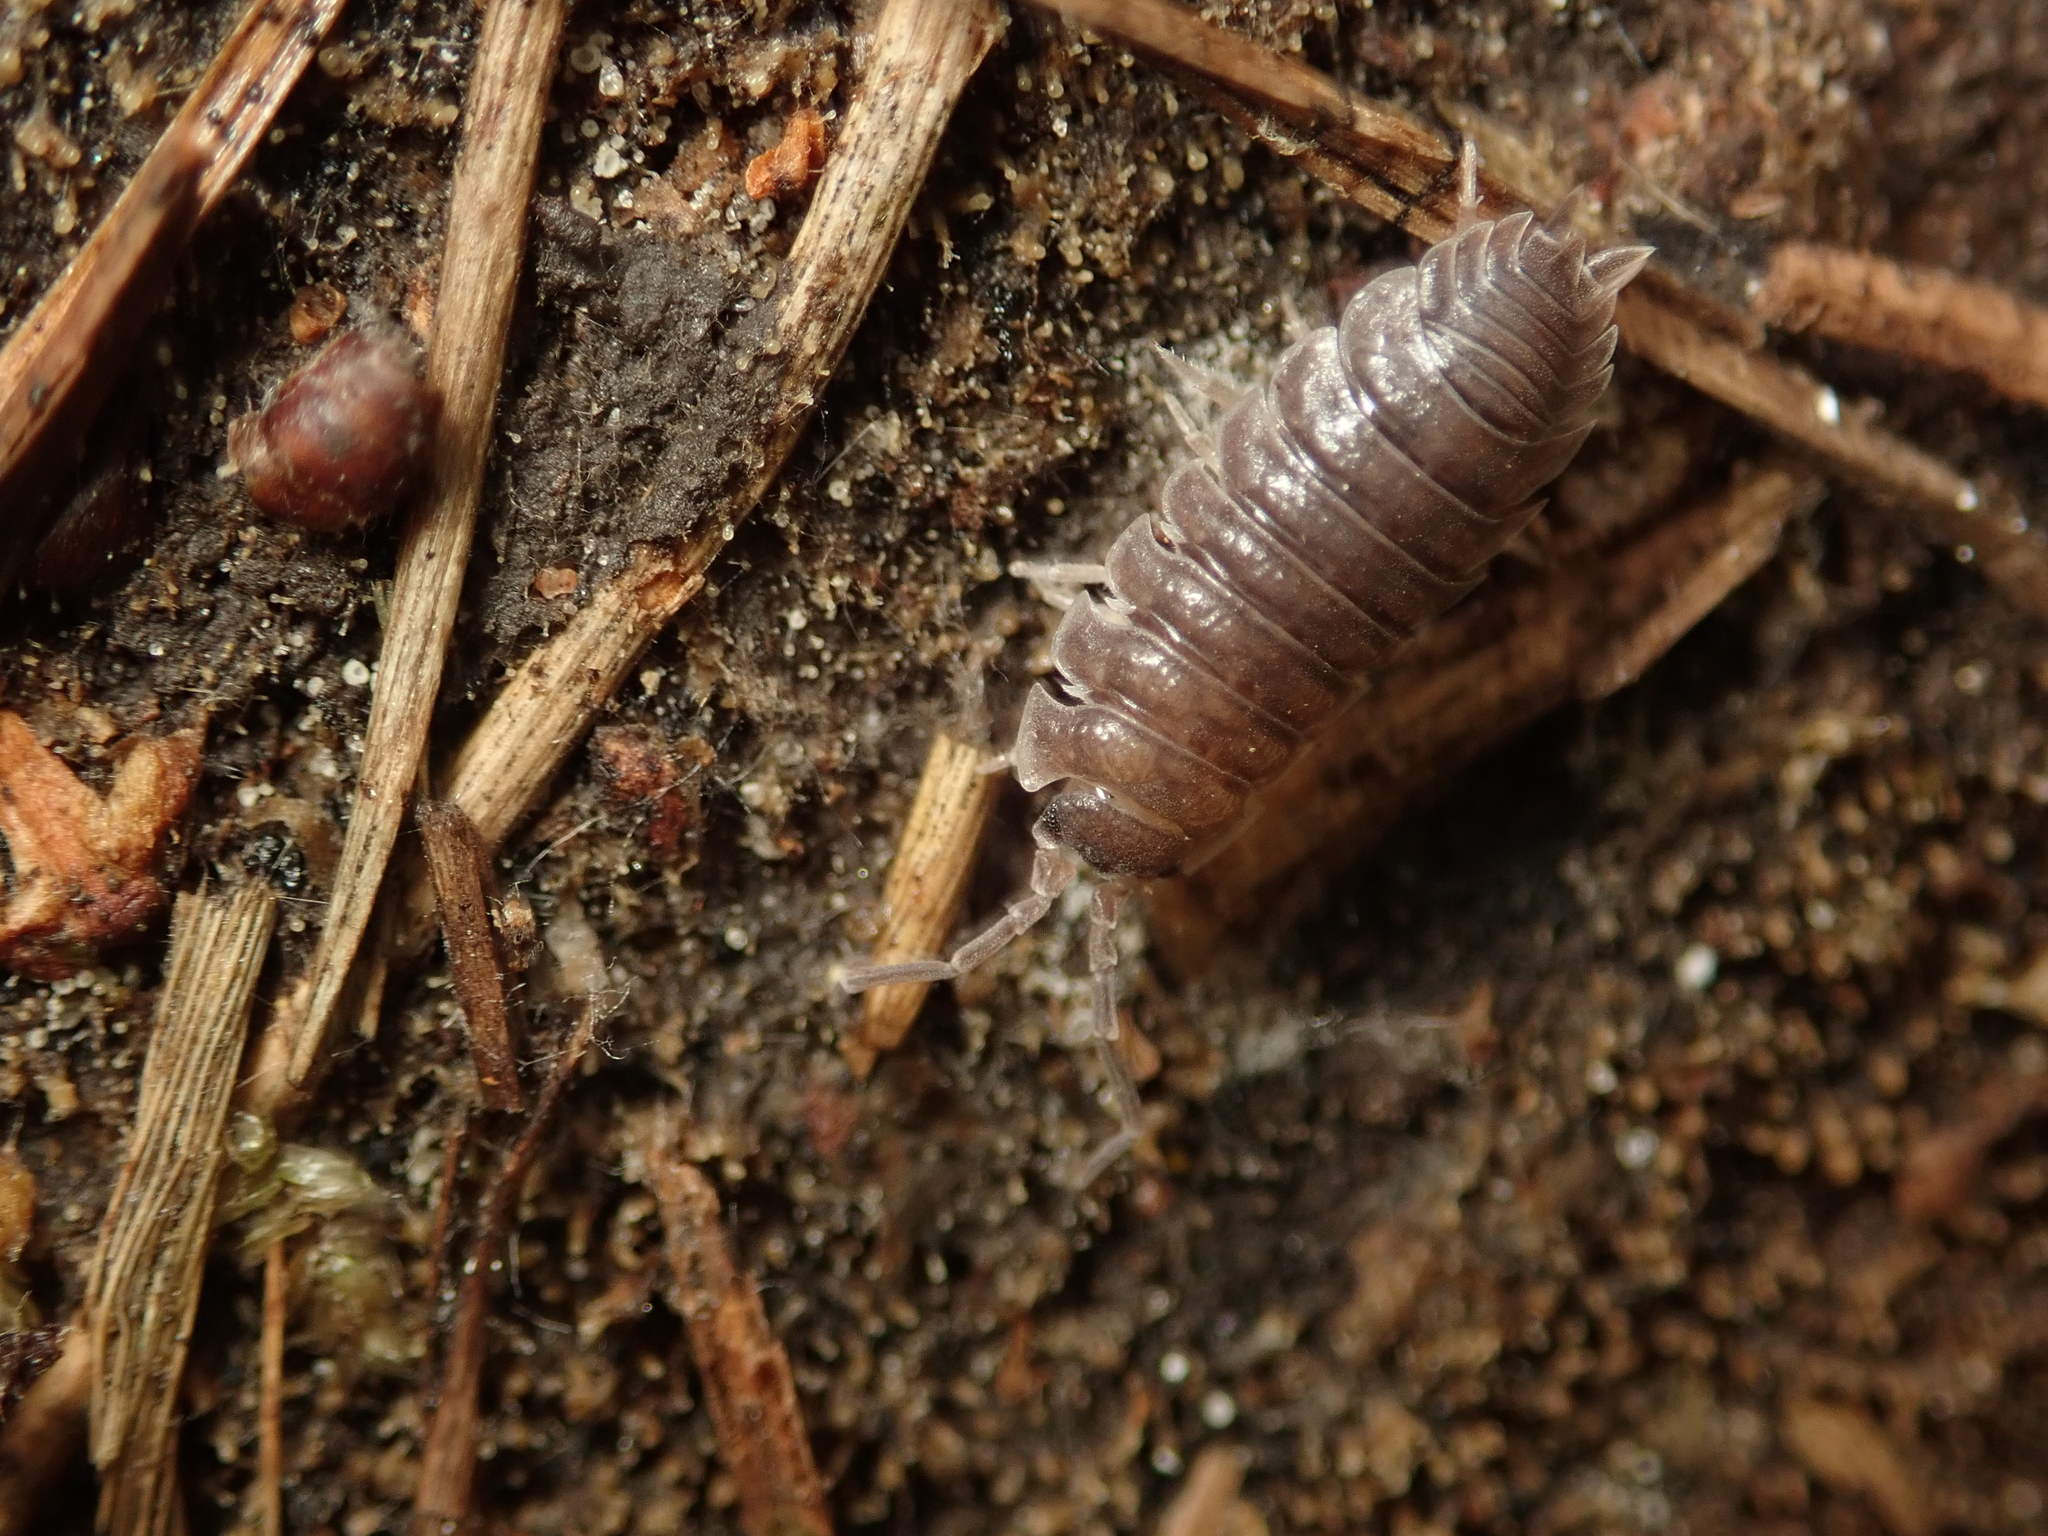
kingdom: Animalia
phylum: Arthropoda
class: Malacostraca
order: Isopoda
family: Porcellionidae
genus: Porcellio
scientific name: Porcellio scaber
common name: Common rough woodlouse
